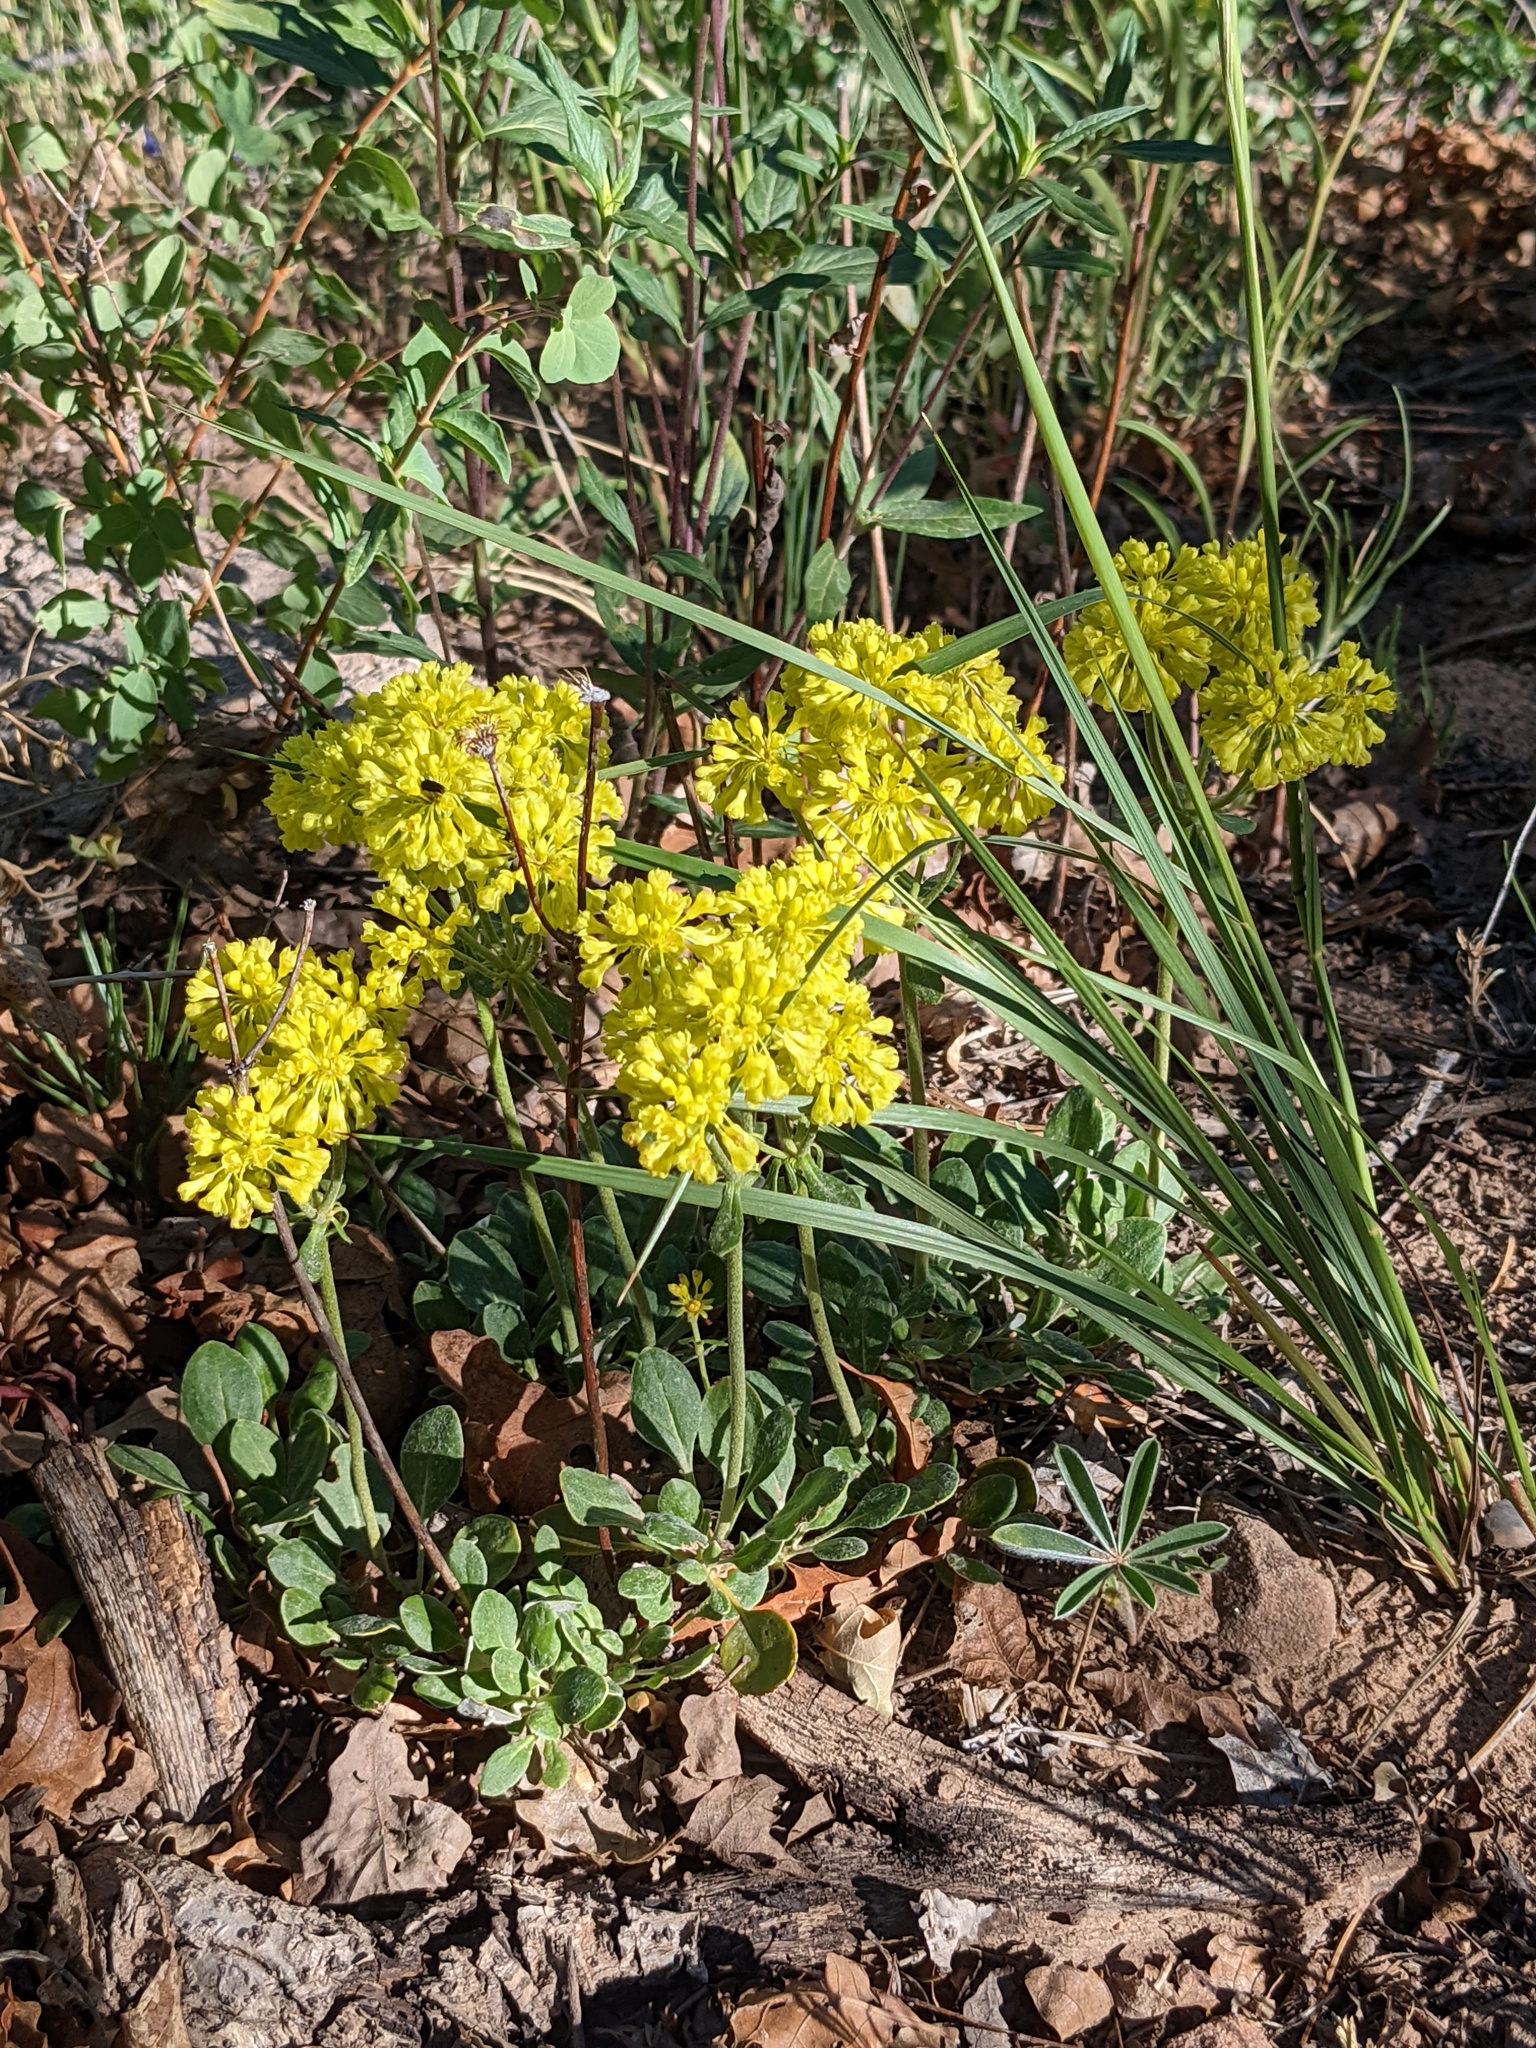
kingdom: Plantae
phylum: Tracheophyta
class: Magnoliopsida
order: Caryophyllales
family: Polygonaceae
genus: Eriogonum
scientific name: Eriogonum umbellatum
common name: Sulfur-buckwheat
